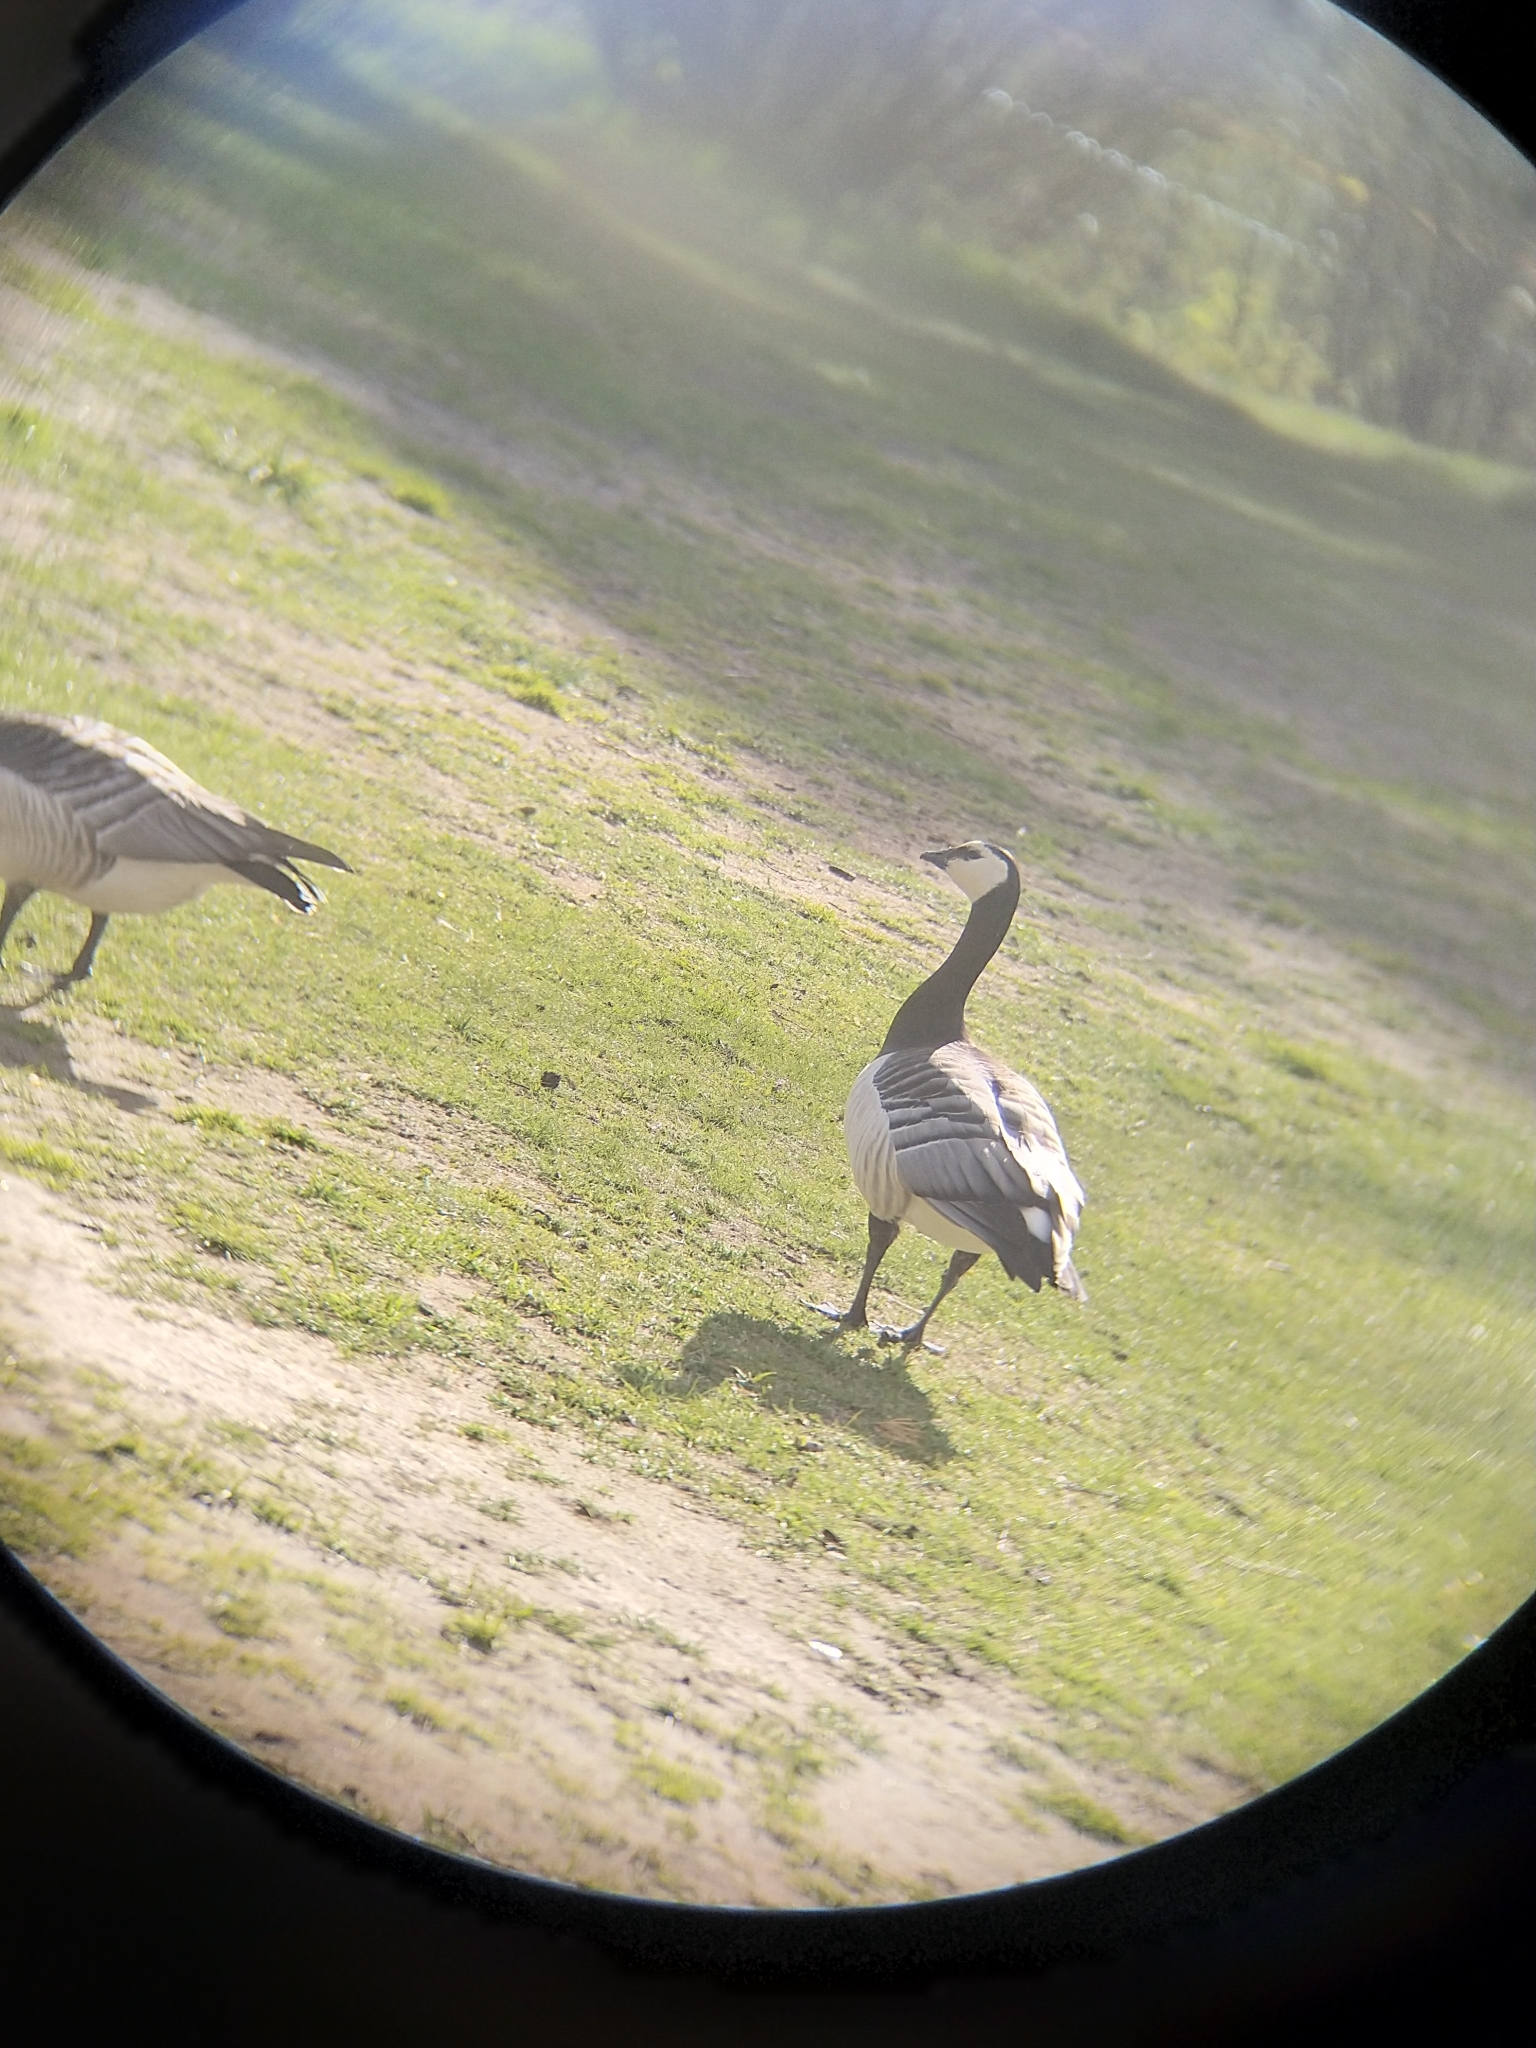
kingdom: Animalia
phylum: Chordata
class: Aves
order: Anseriformes
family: Anatidae
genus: Branta
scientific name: Branta leucopsis
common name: Barnacle goose
